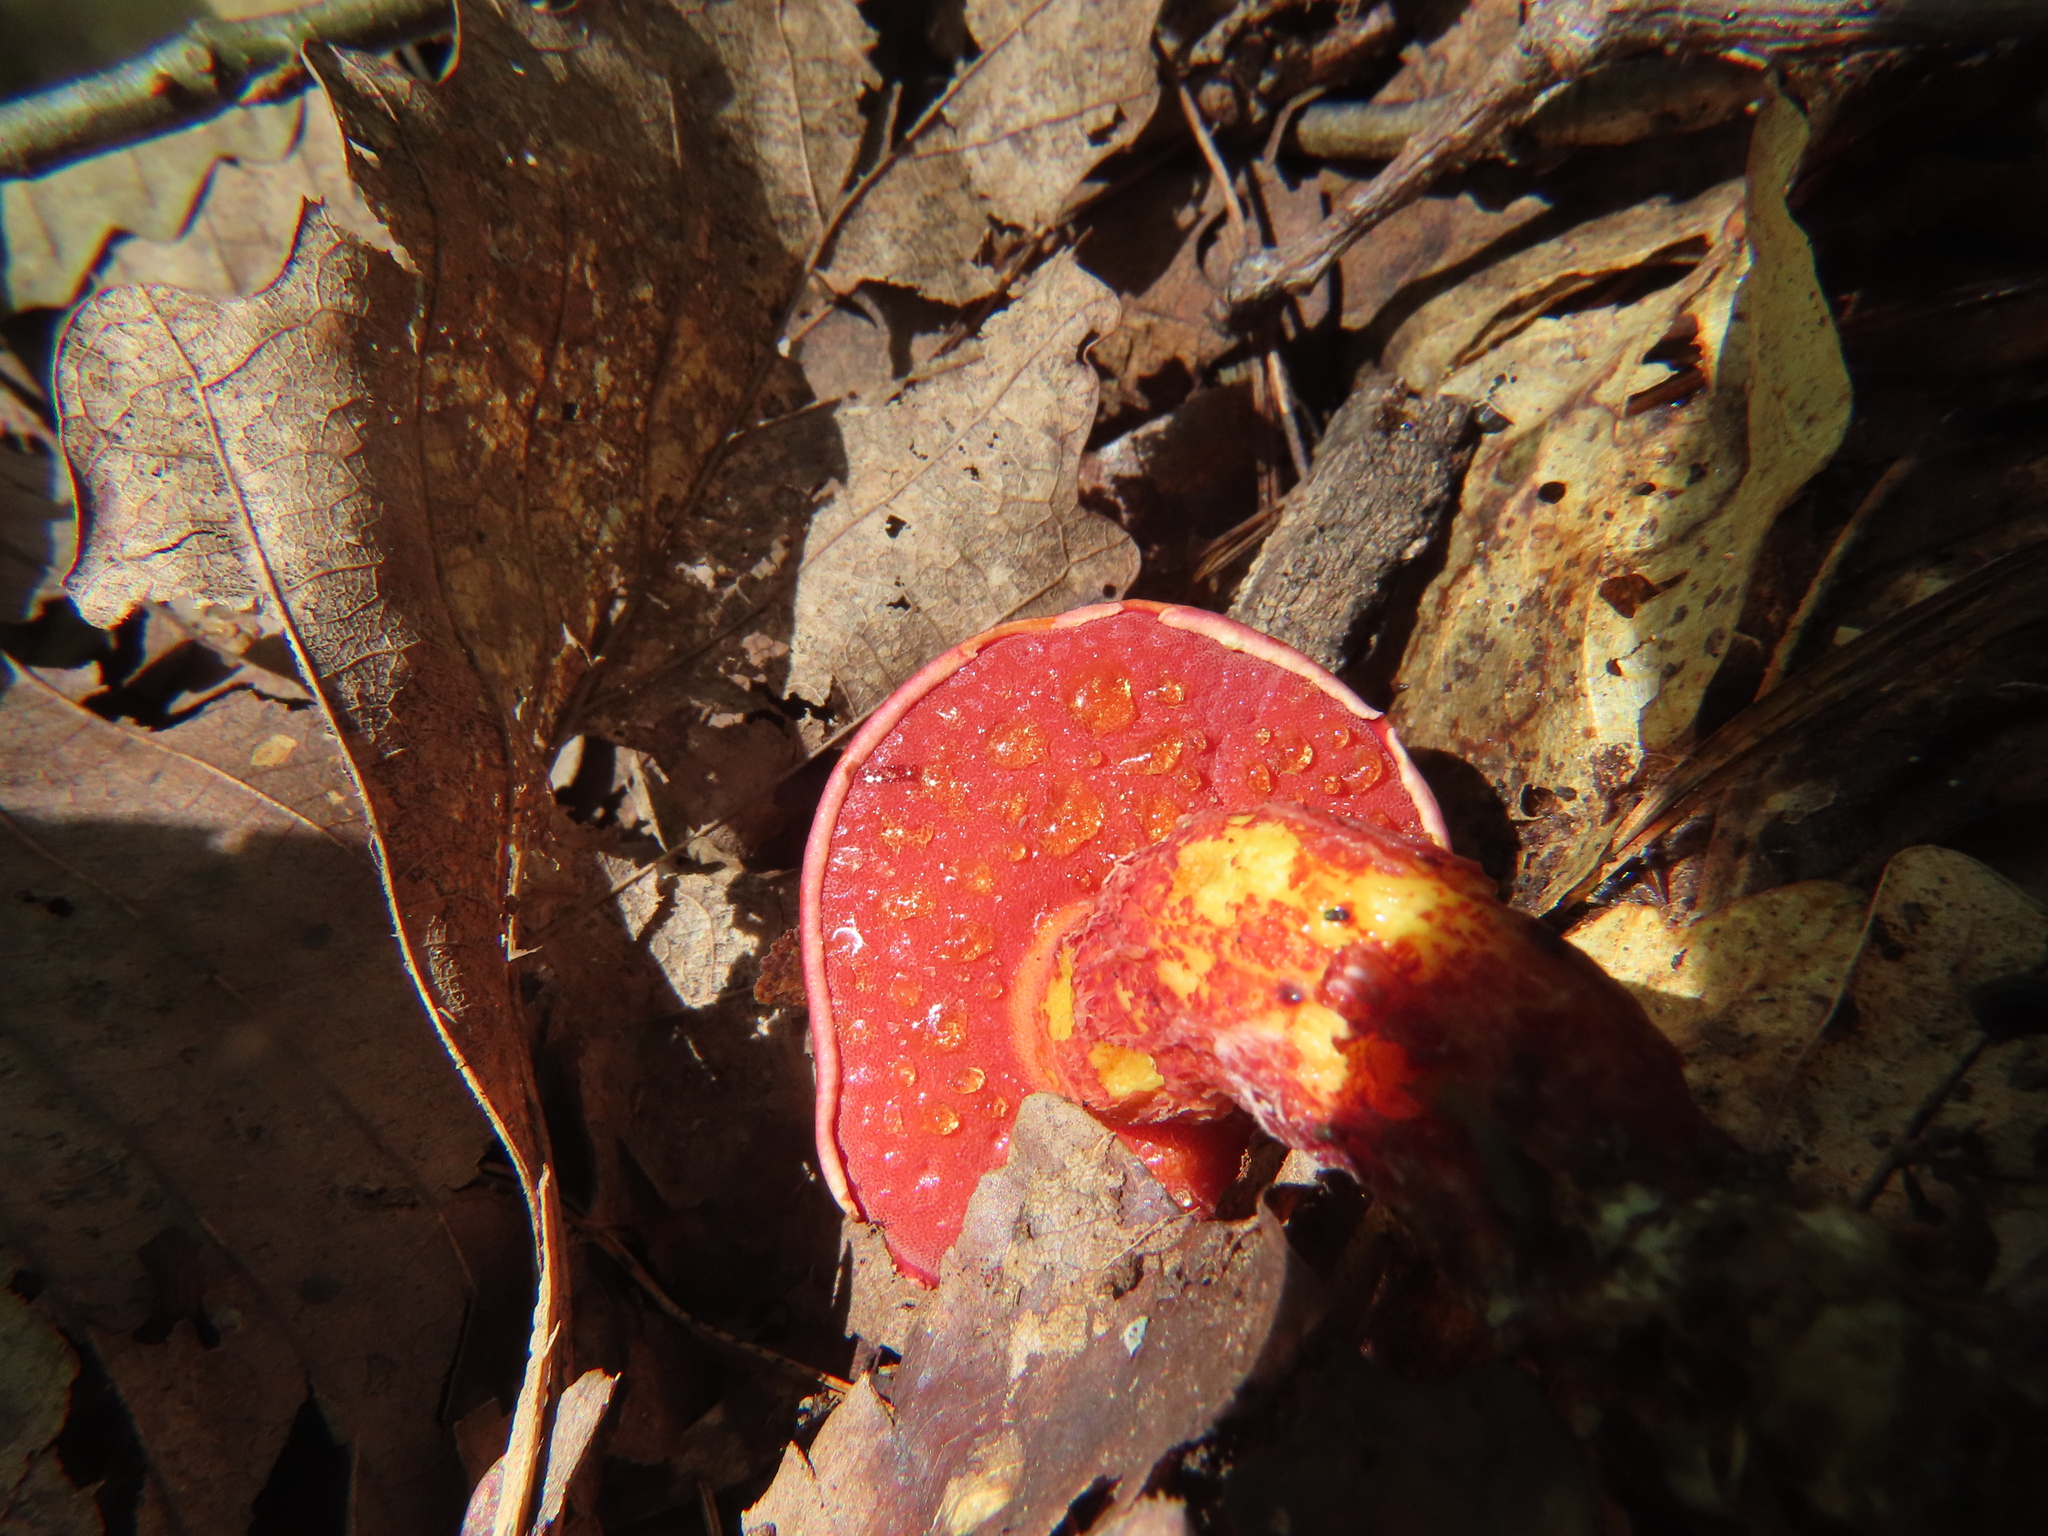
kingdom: Fungi
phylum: Basidiomycota
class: Agaricomycetes
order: Boletales
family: Boletaceae
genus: Butyriboletus
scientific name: Butyriboletus frostii
